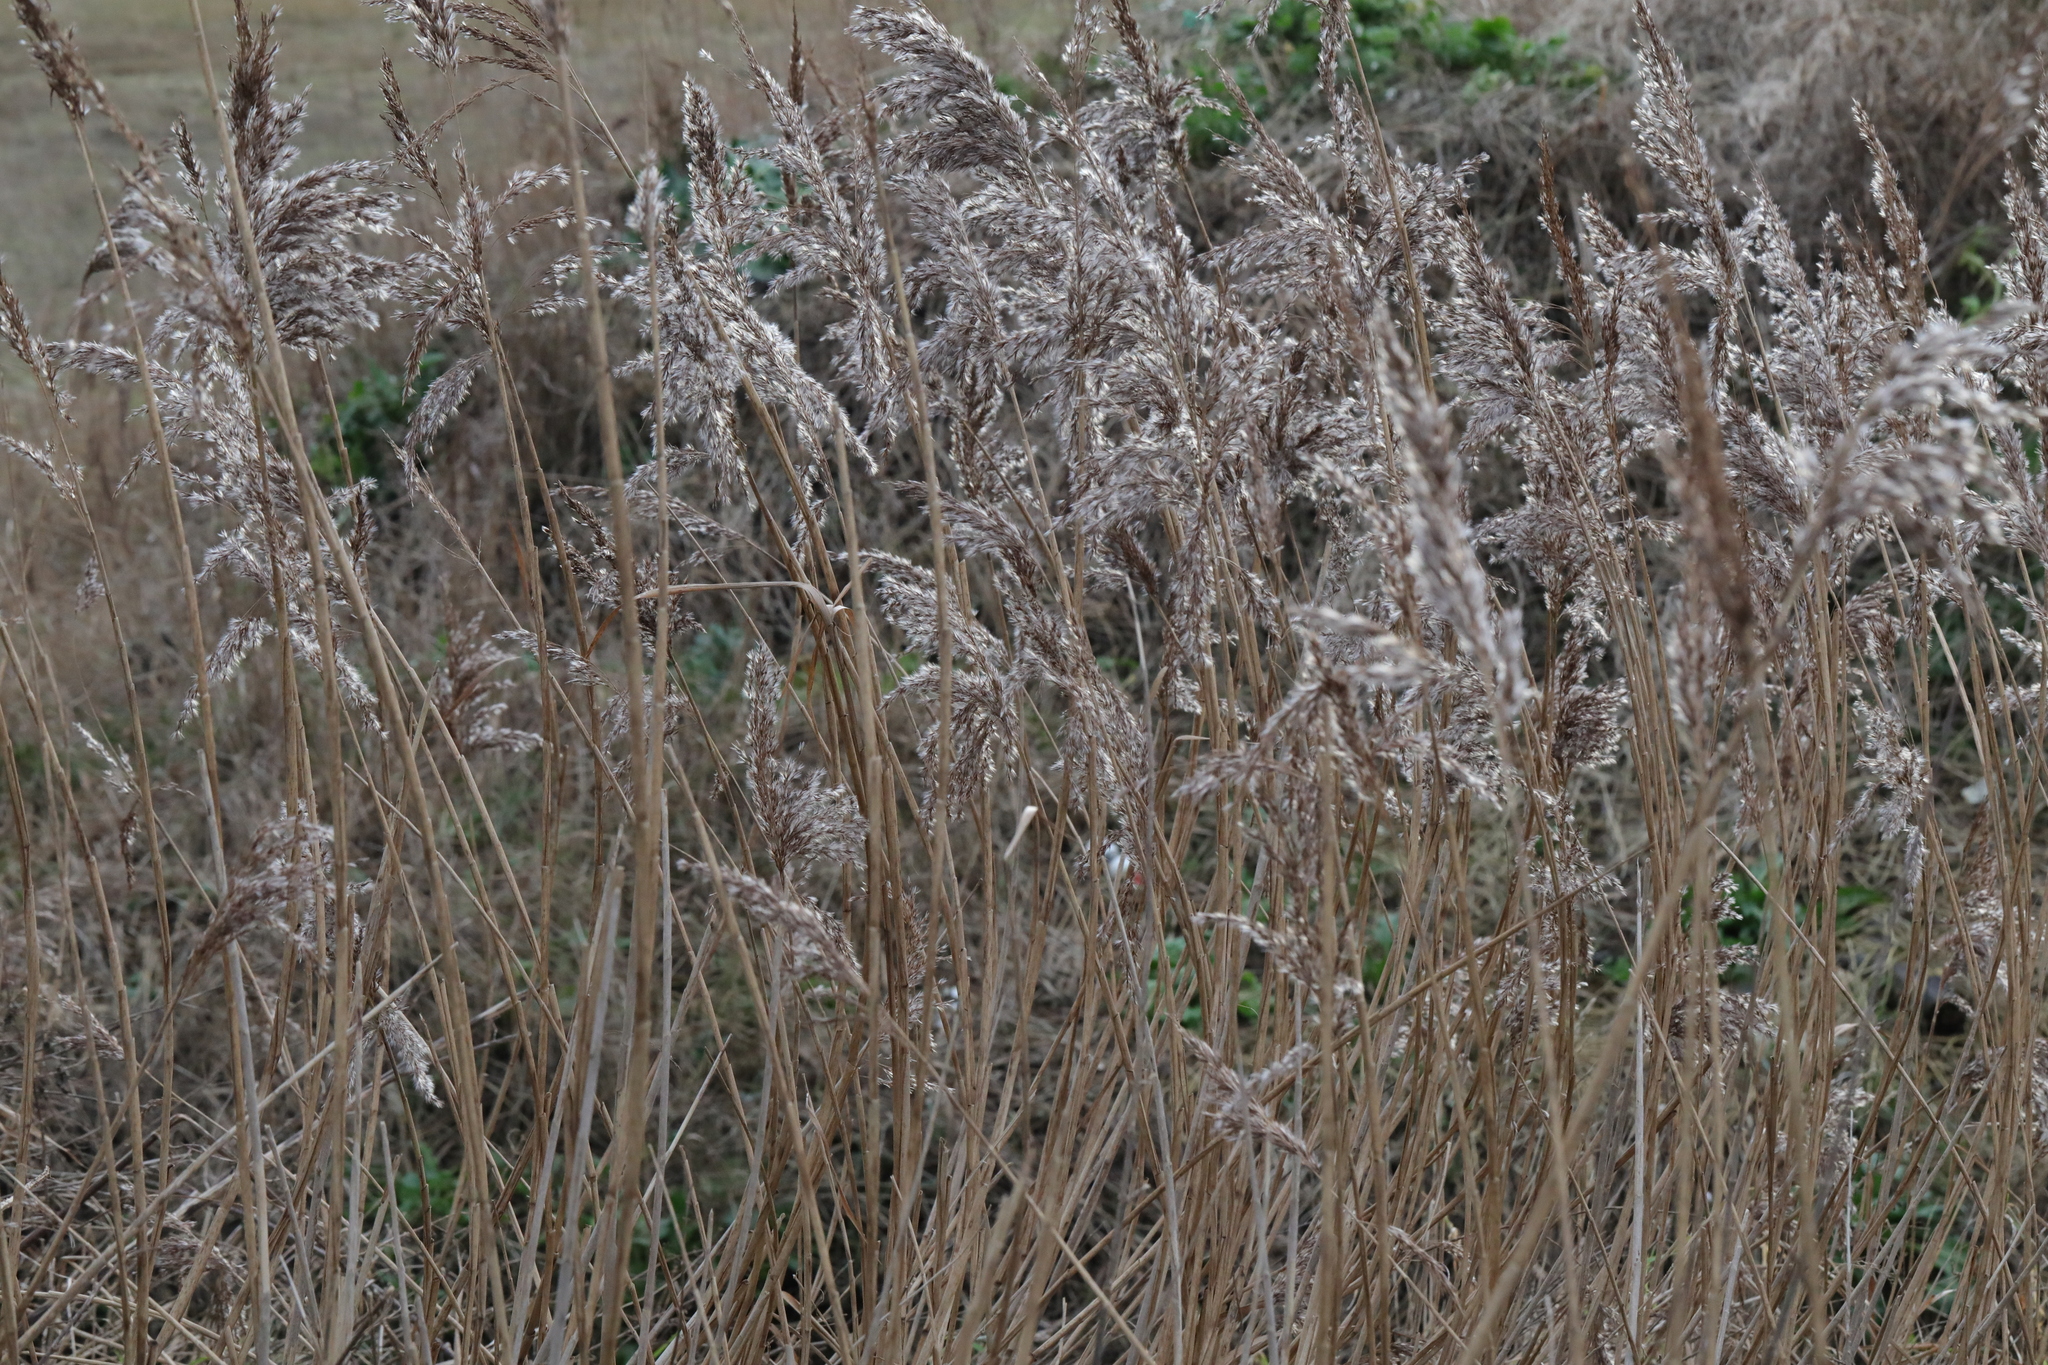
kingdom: Plantae
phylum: Tracheophyta
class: Liliopsida
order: Poales
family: Poaceae
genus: Phragmites
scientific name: Phragmites australis
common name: Common reed
